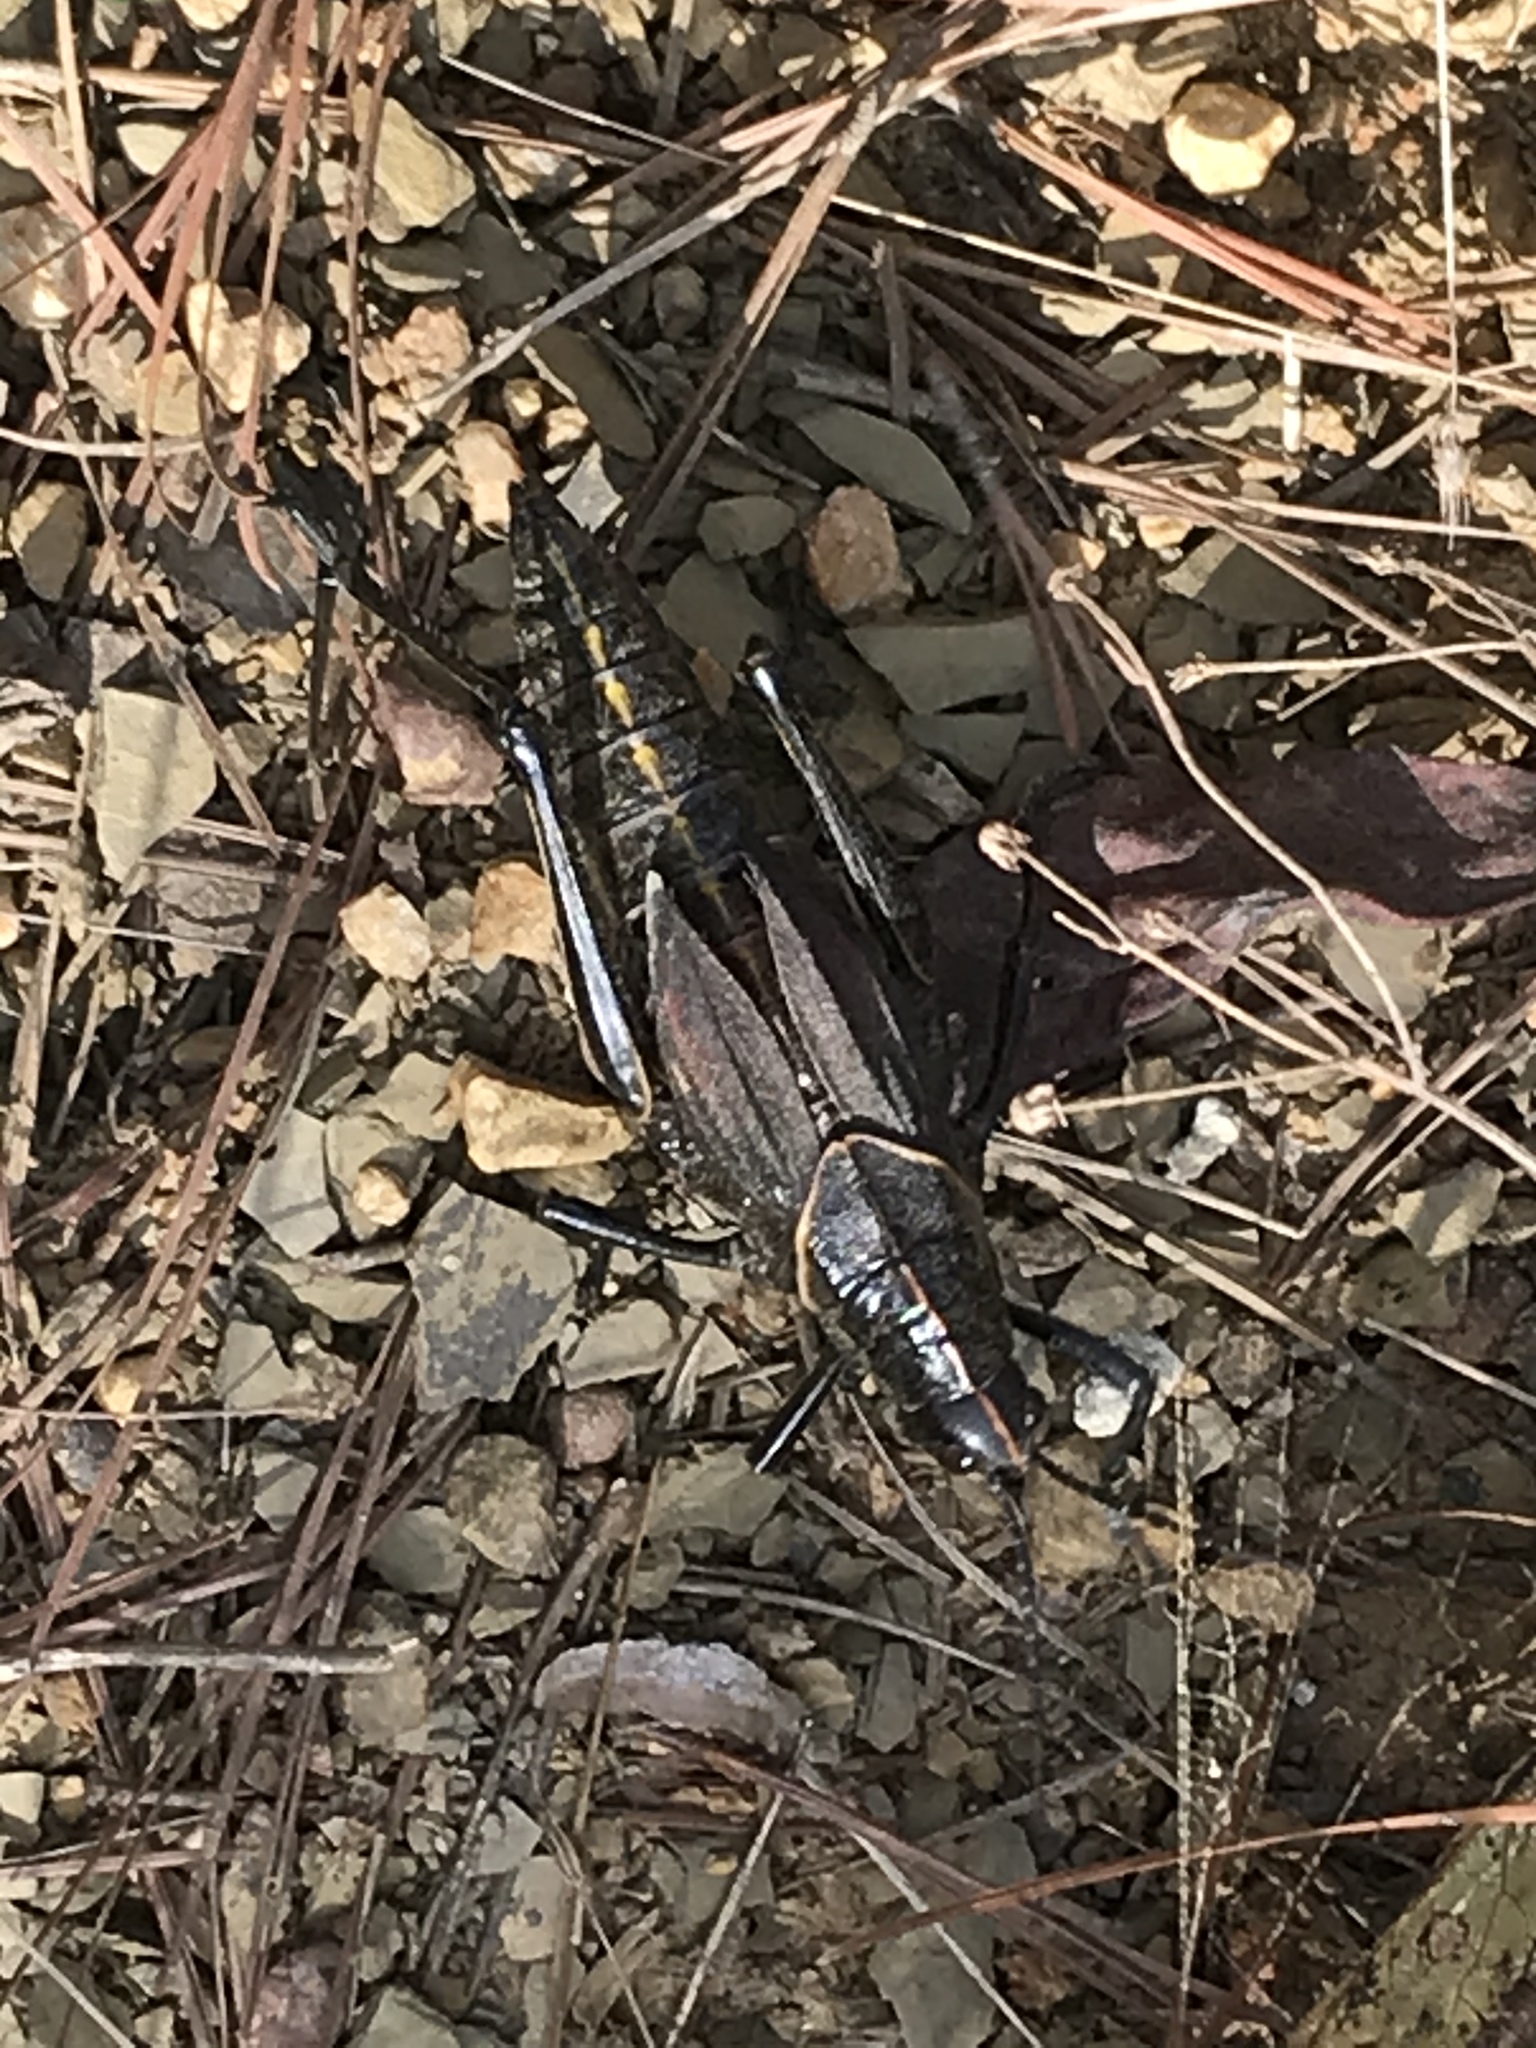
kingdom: Animalia
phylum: Arthropoda
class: Insecta
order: Orthoptera
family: Romaleidae
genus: Romalea
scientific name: Romalea microptera
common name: Eastern lubber grasshopper
